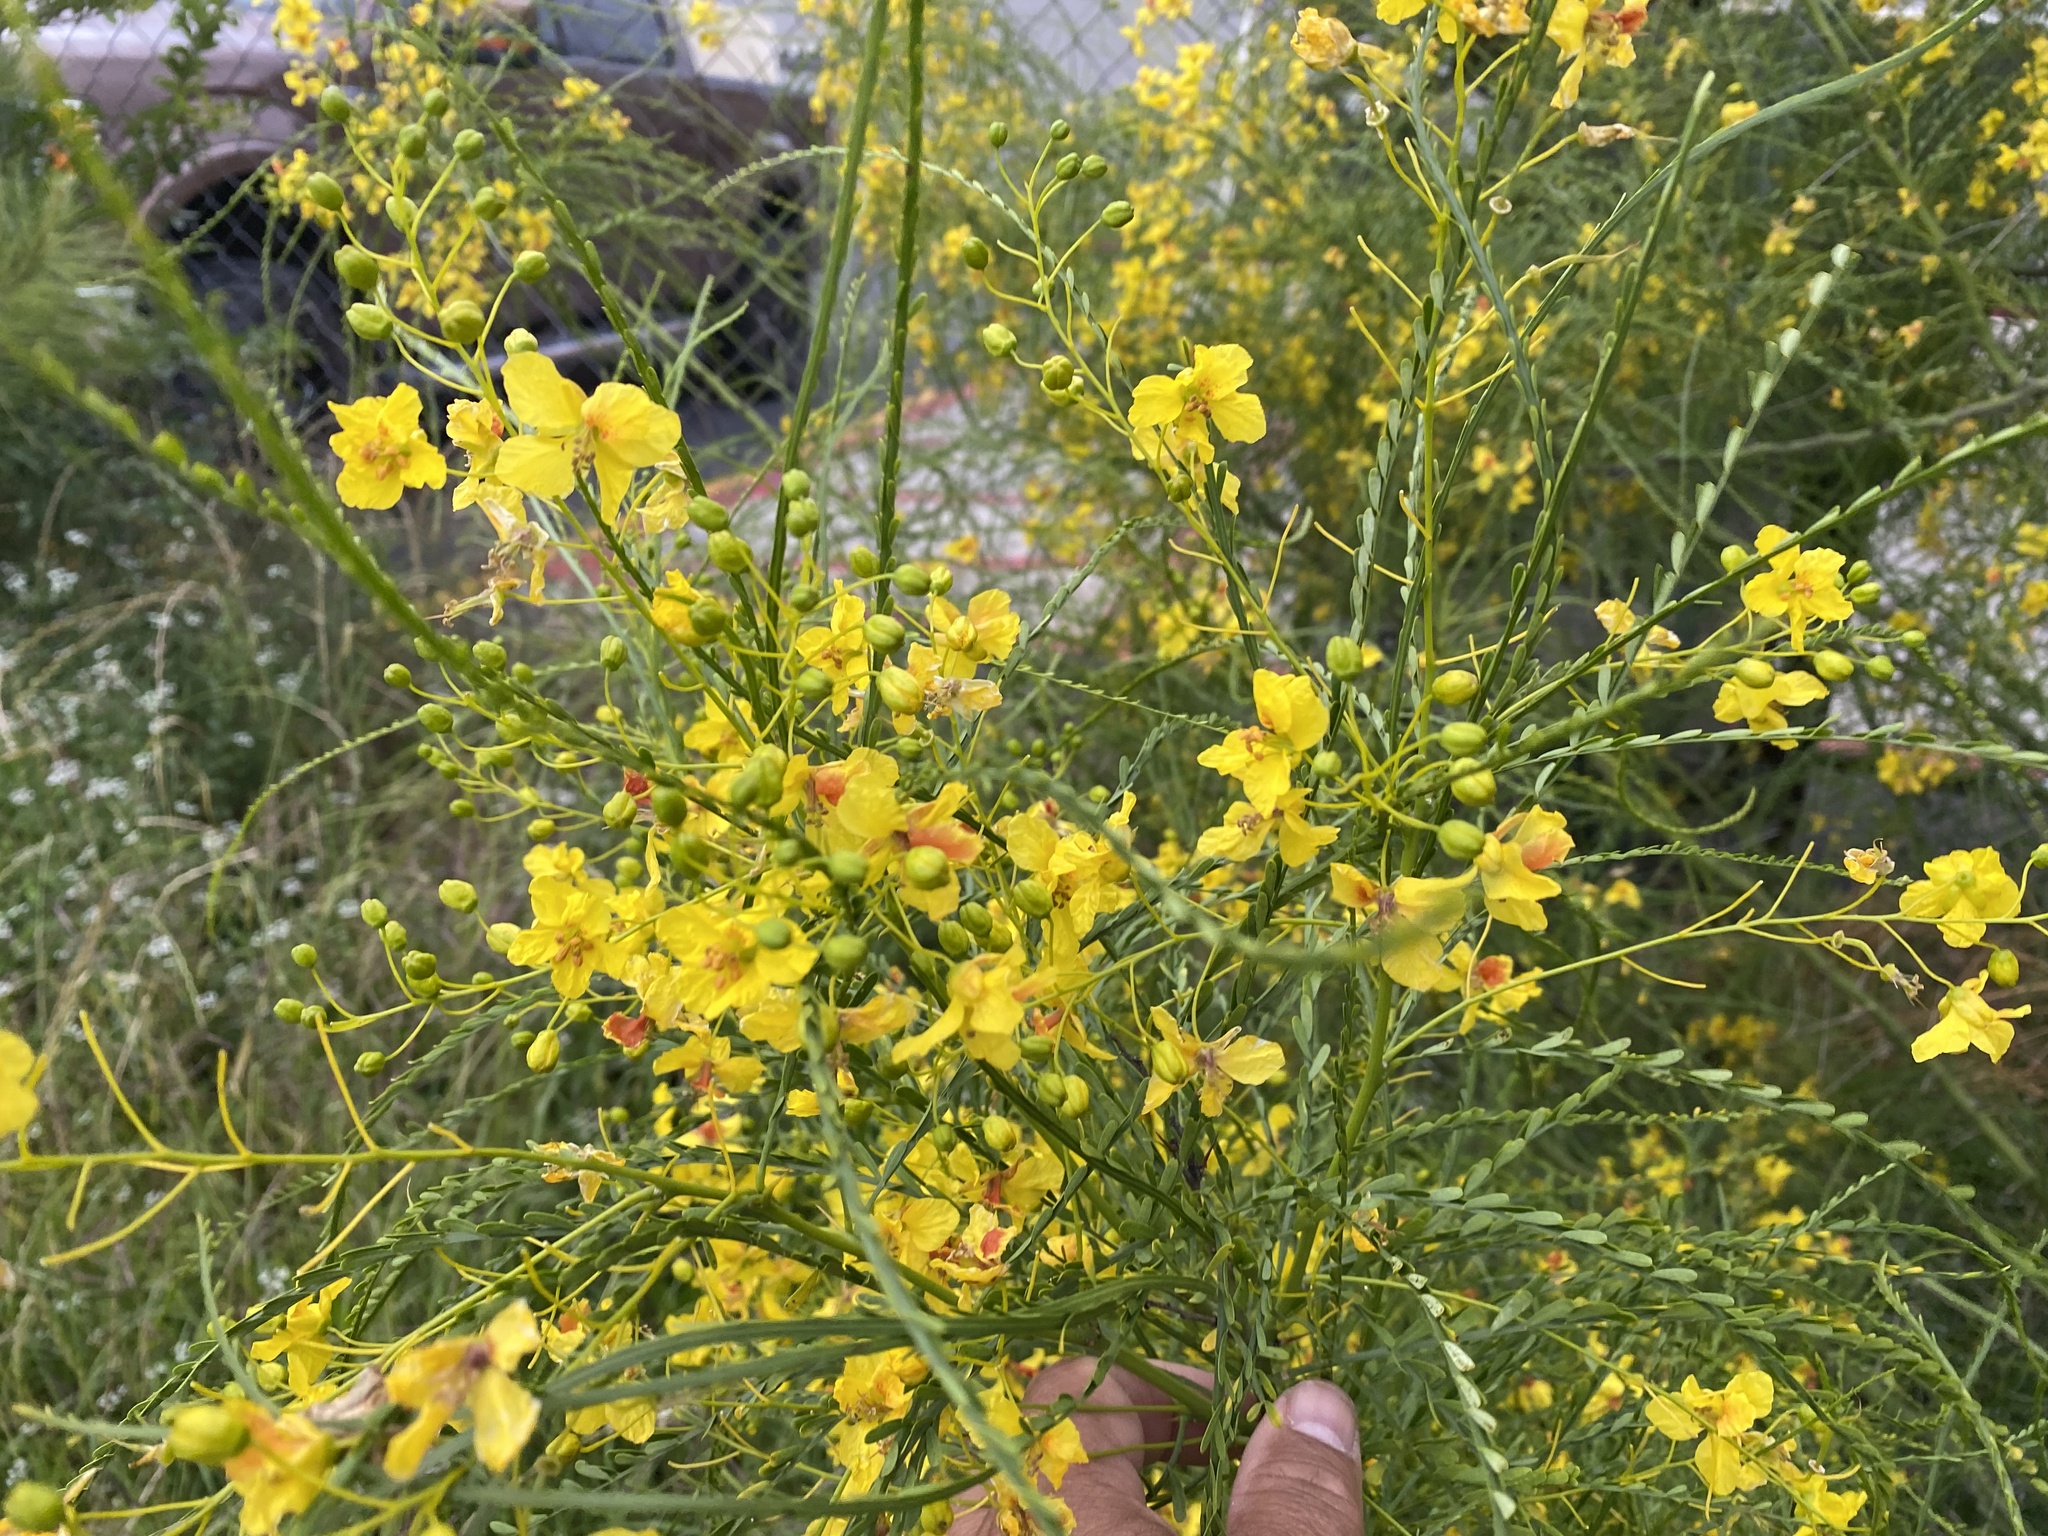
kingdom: Plantae
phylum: Tracheophyta
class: Magnoliopsida
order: Fabales
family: Fabaceae
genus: Parkinsonia
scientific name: Parkinsonia aculeata
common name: Jerusalem thorn
